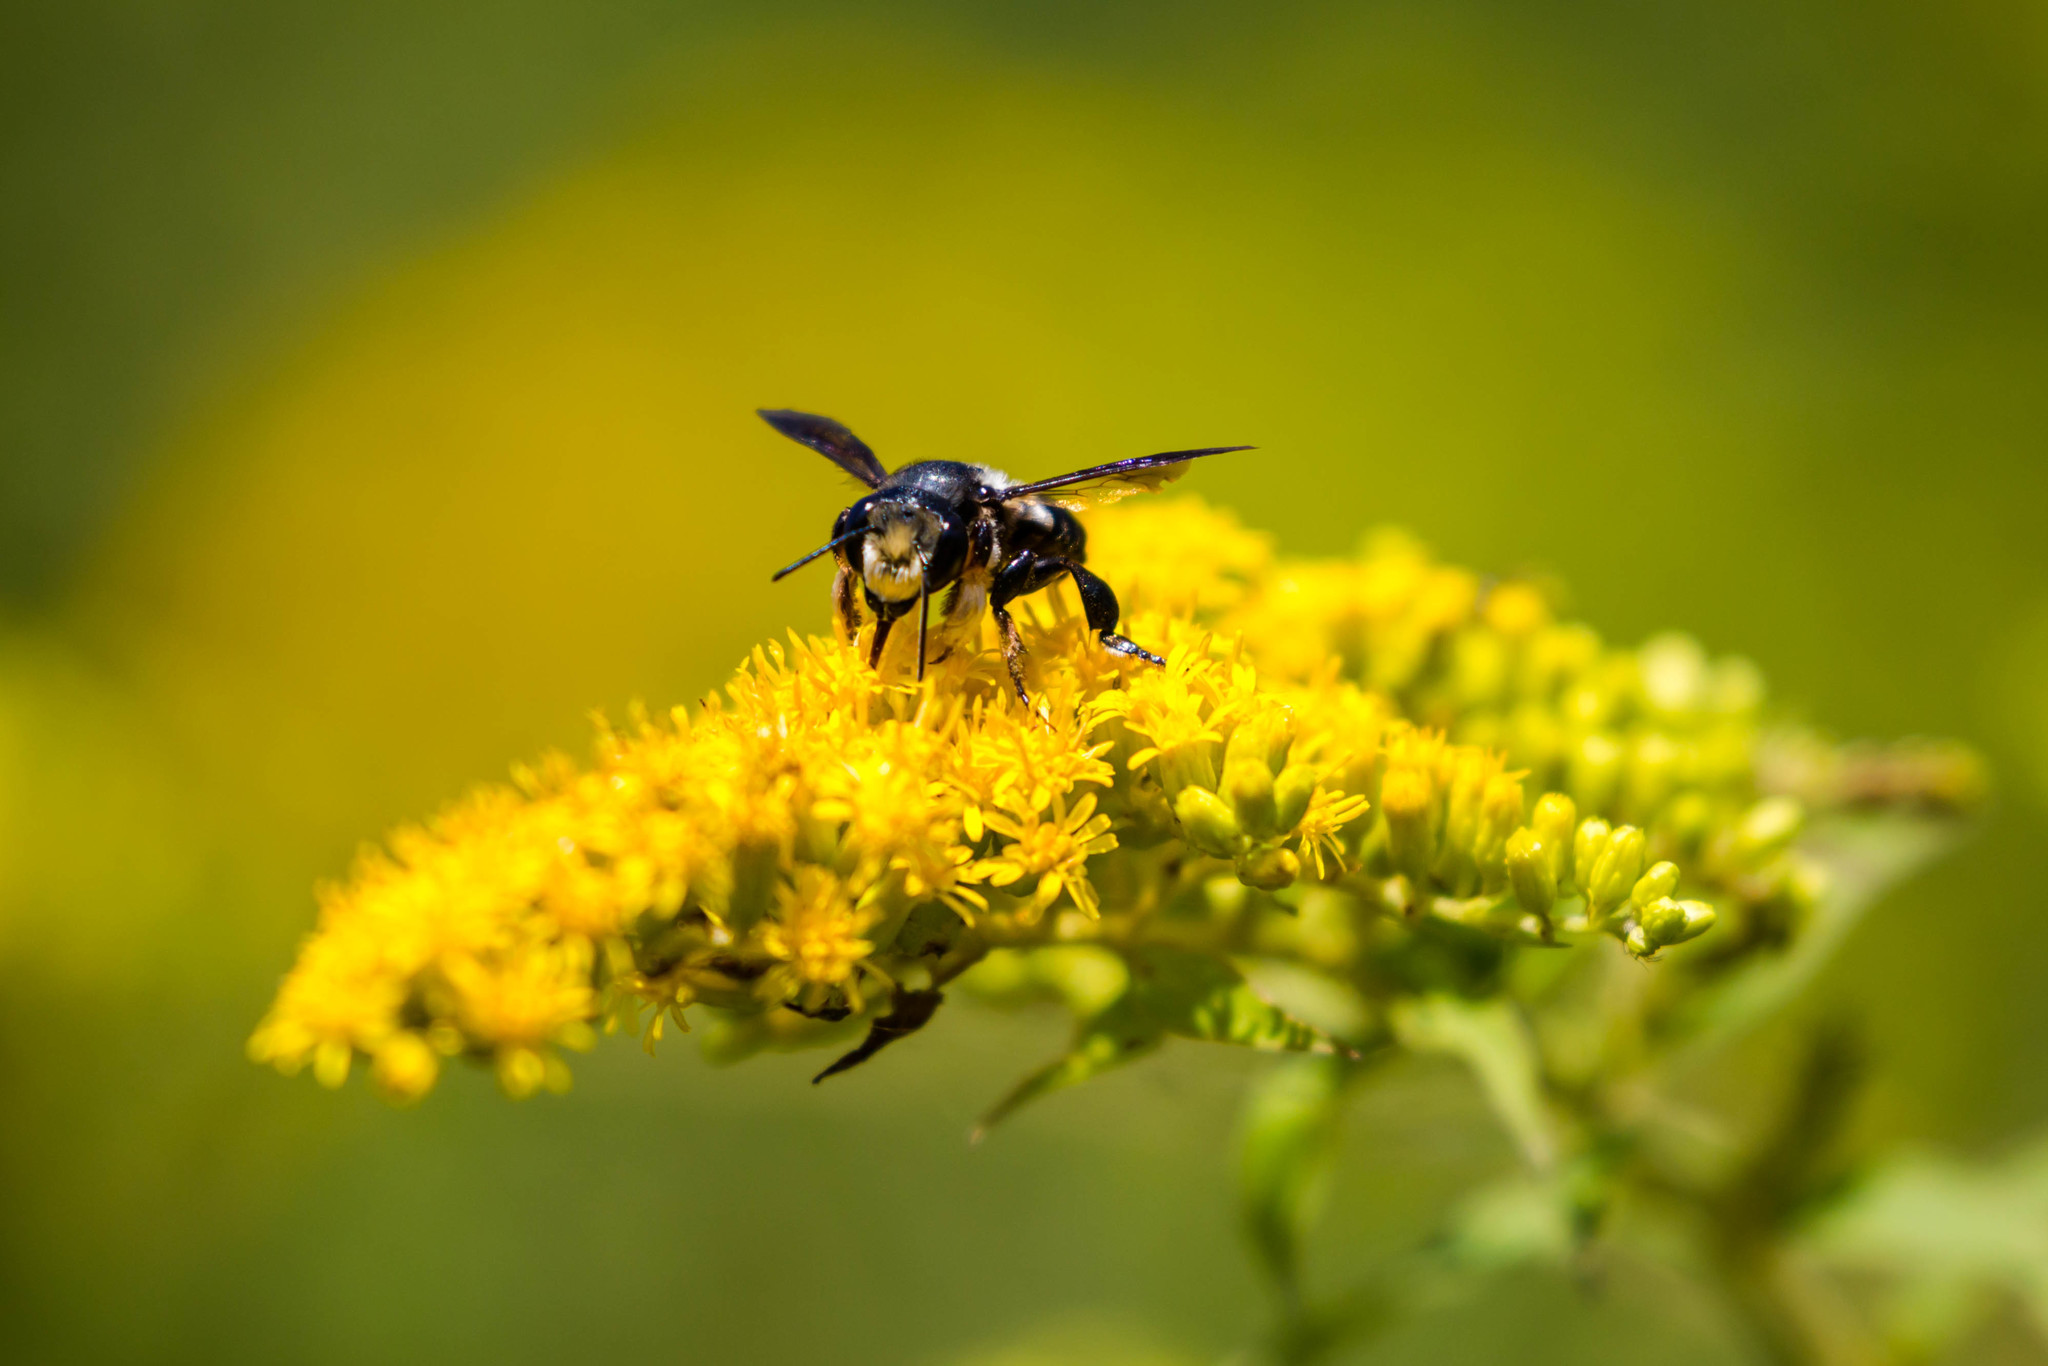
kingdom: Animalia
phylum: Arthropoda
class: Insecta
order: Hymenoptera
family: Megachilidae
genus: Megachile
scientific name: Megachile xylocopoides
